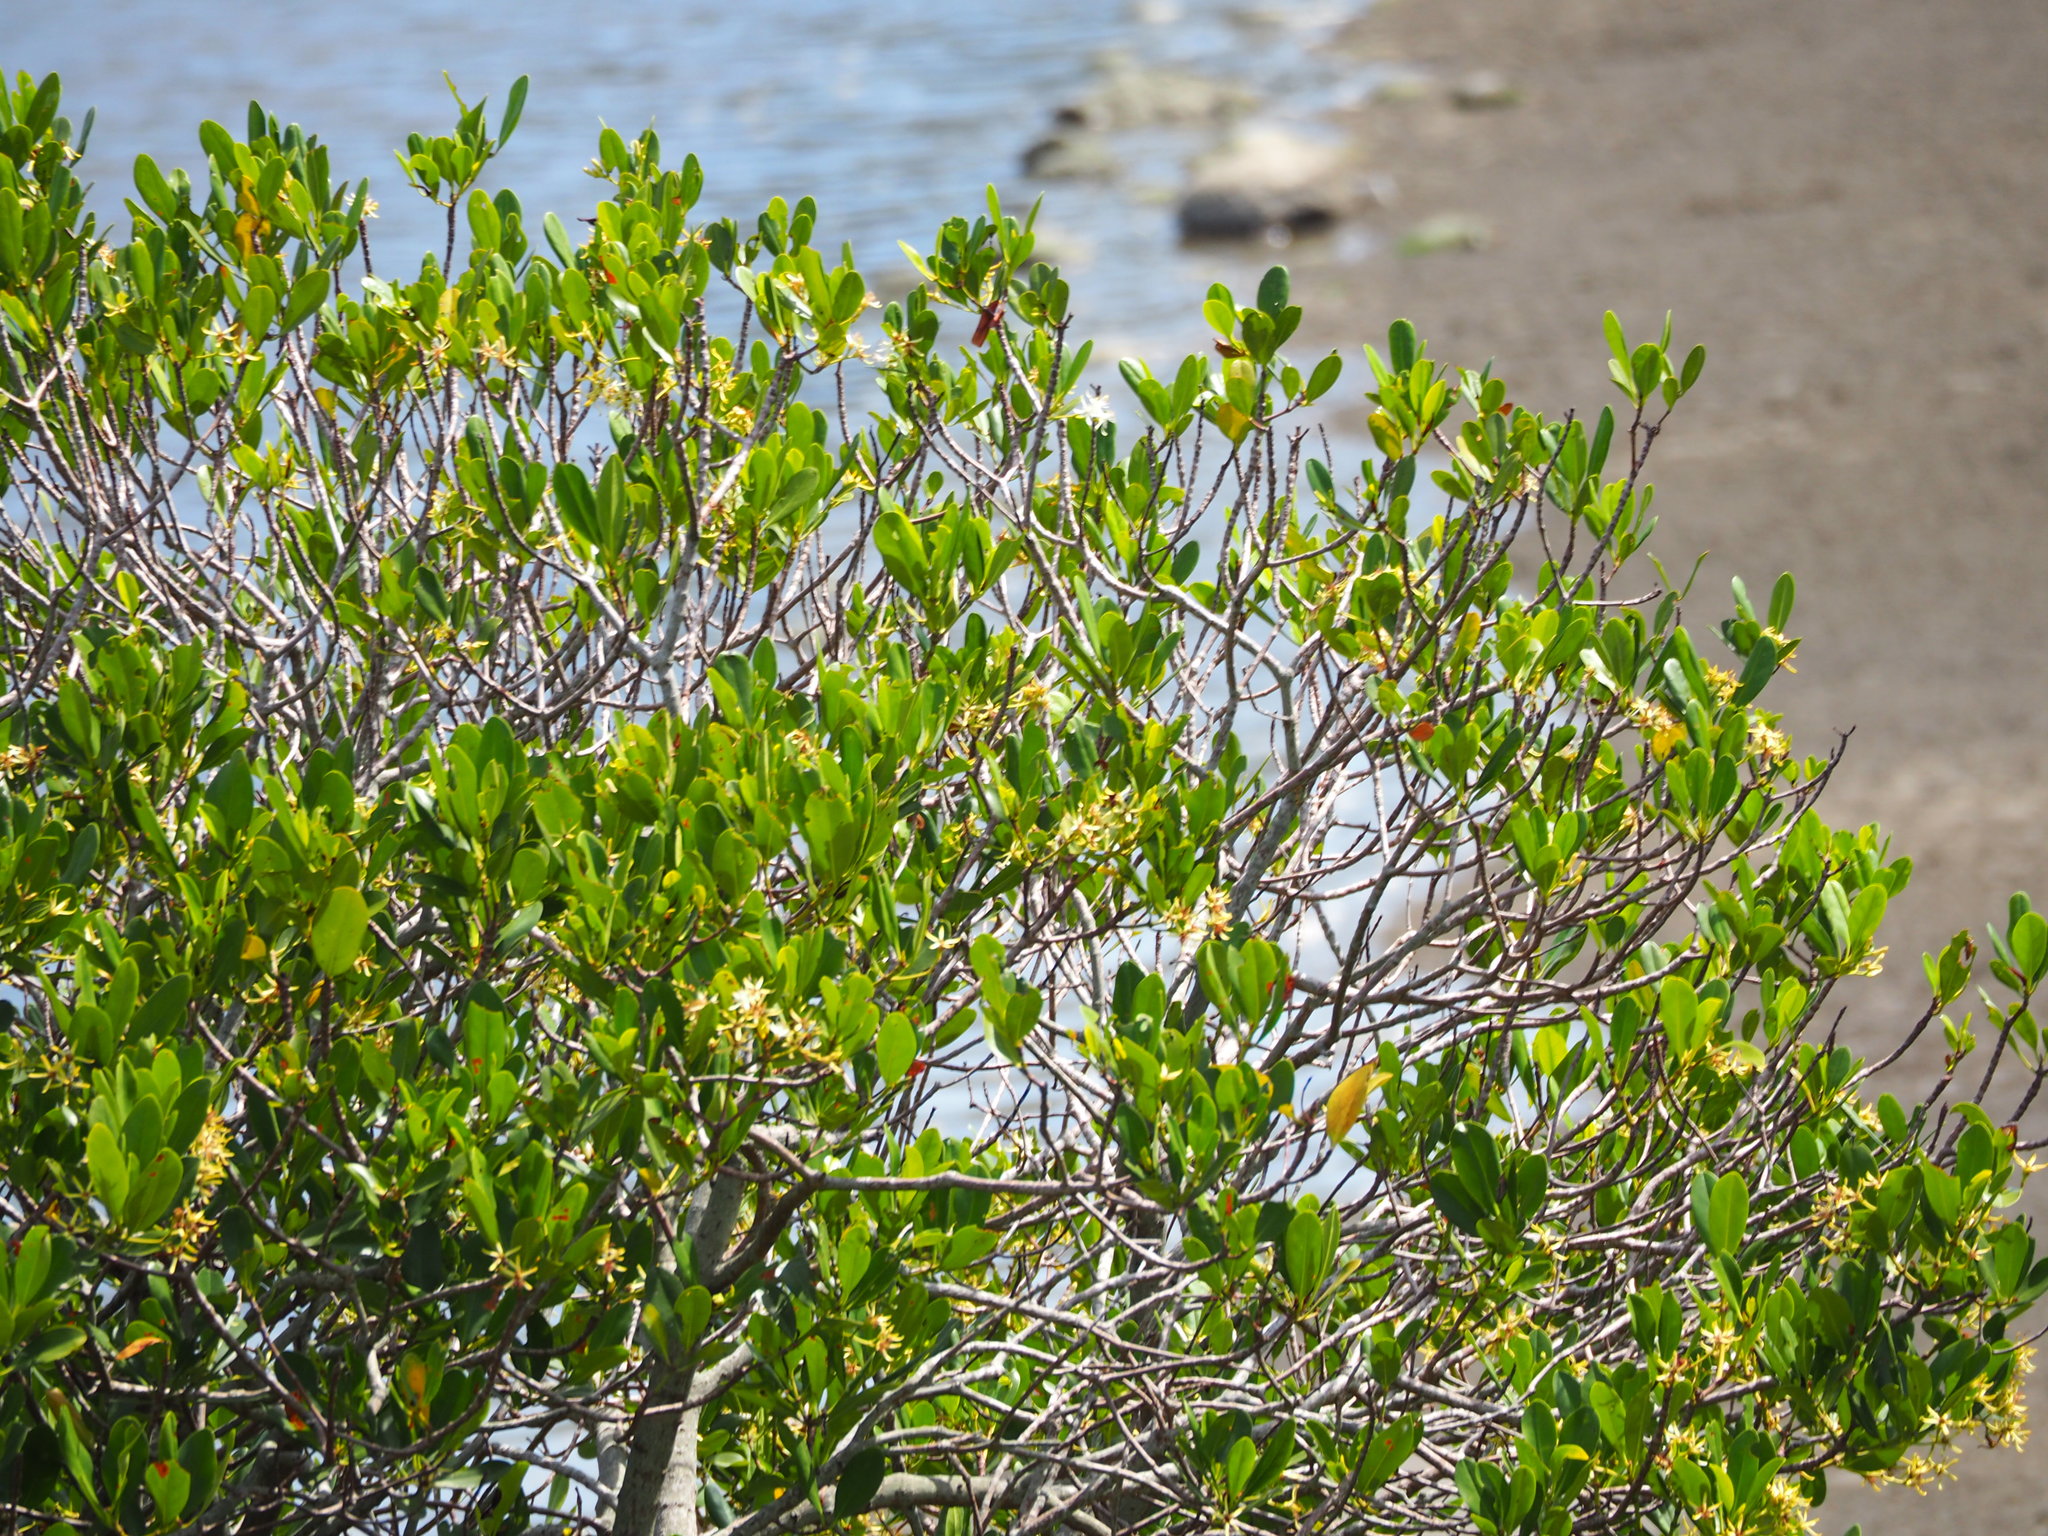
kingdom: Plantae
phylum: Tracheophyta
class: Magnoliopsida
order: Malpighiales
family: Rhizophoraceae
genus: Kandelia
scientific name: Kandelia obovata
